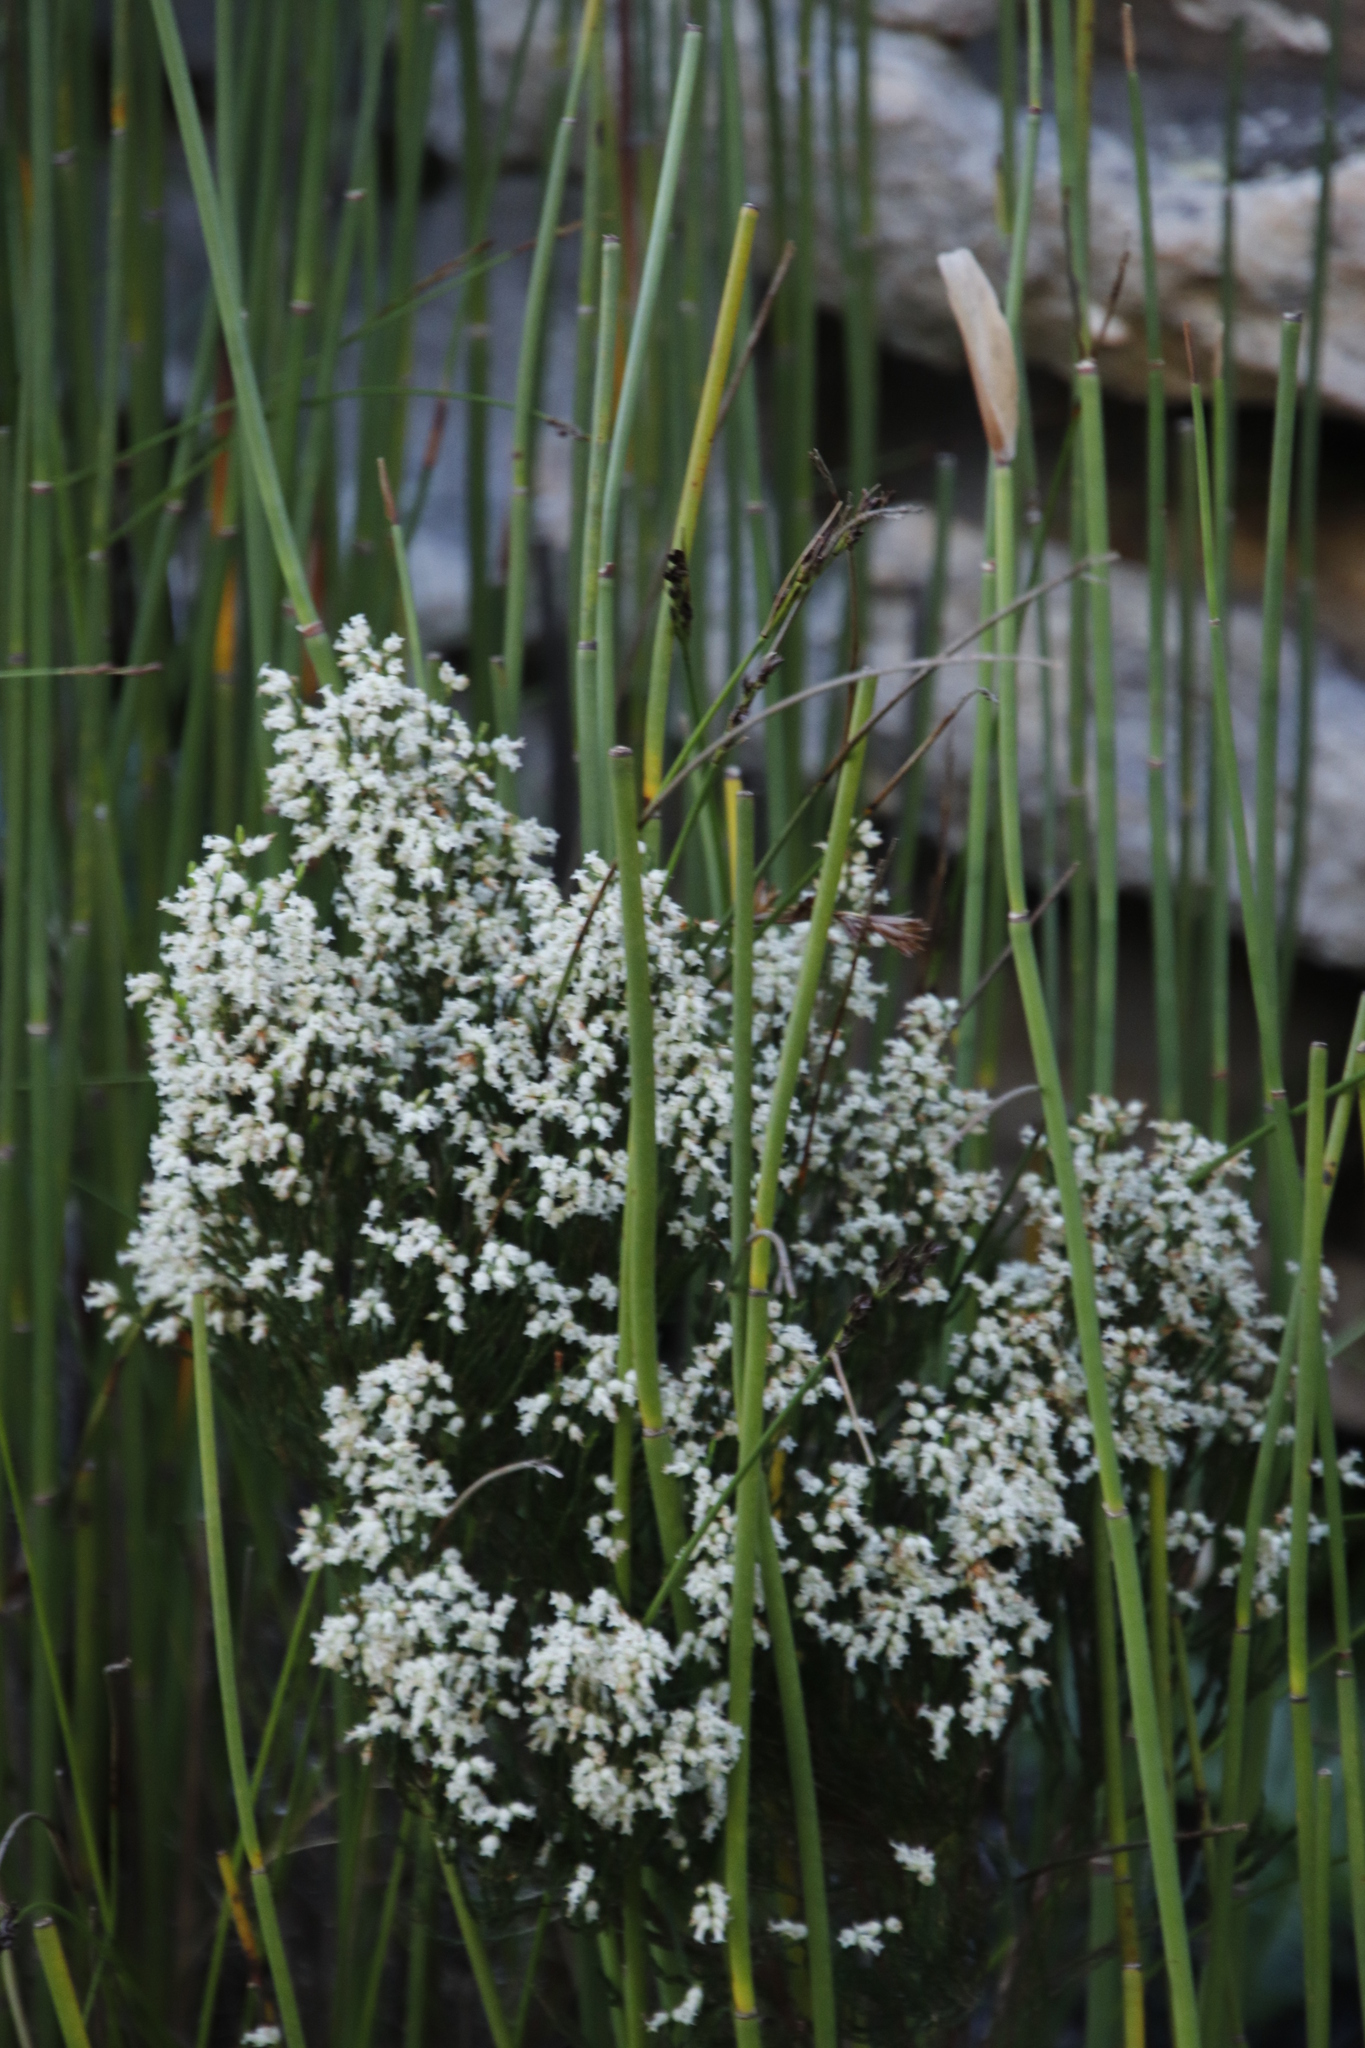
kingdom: Plantae
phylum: Tracheophyta
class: Magnoliopsida
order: Ericales
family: Ericaceae
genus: Erica
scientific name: Erica lutea
